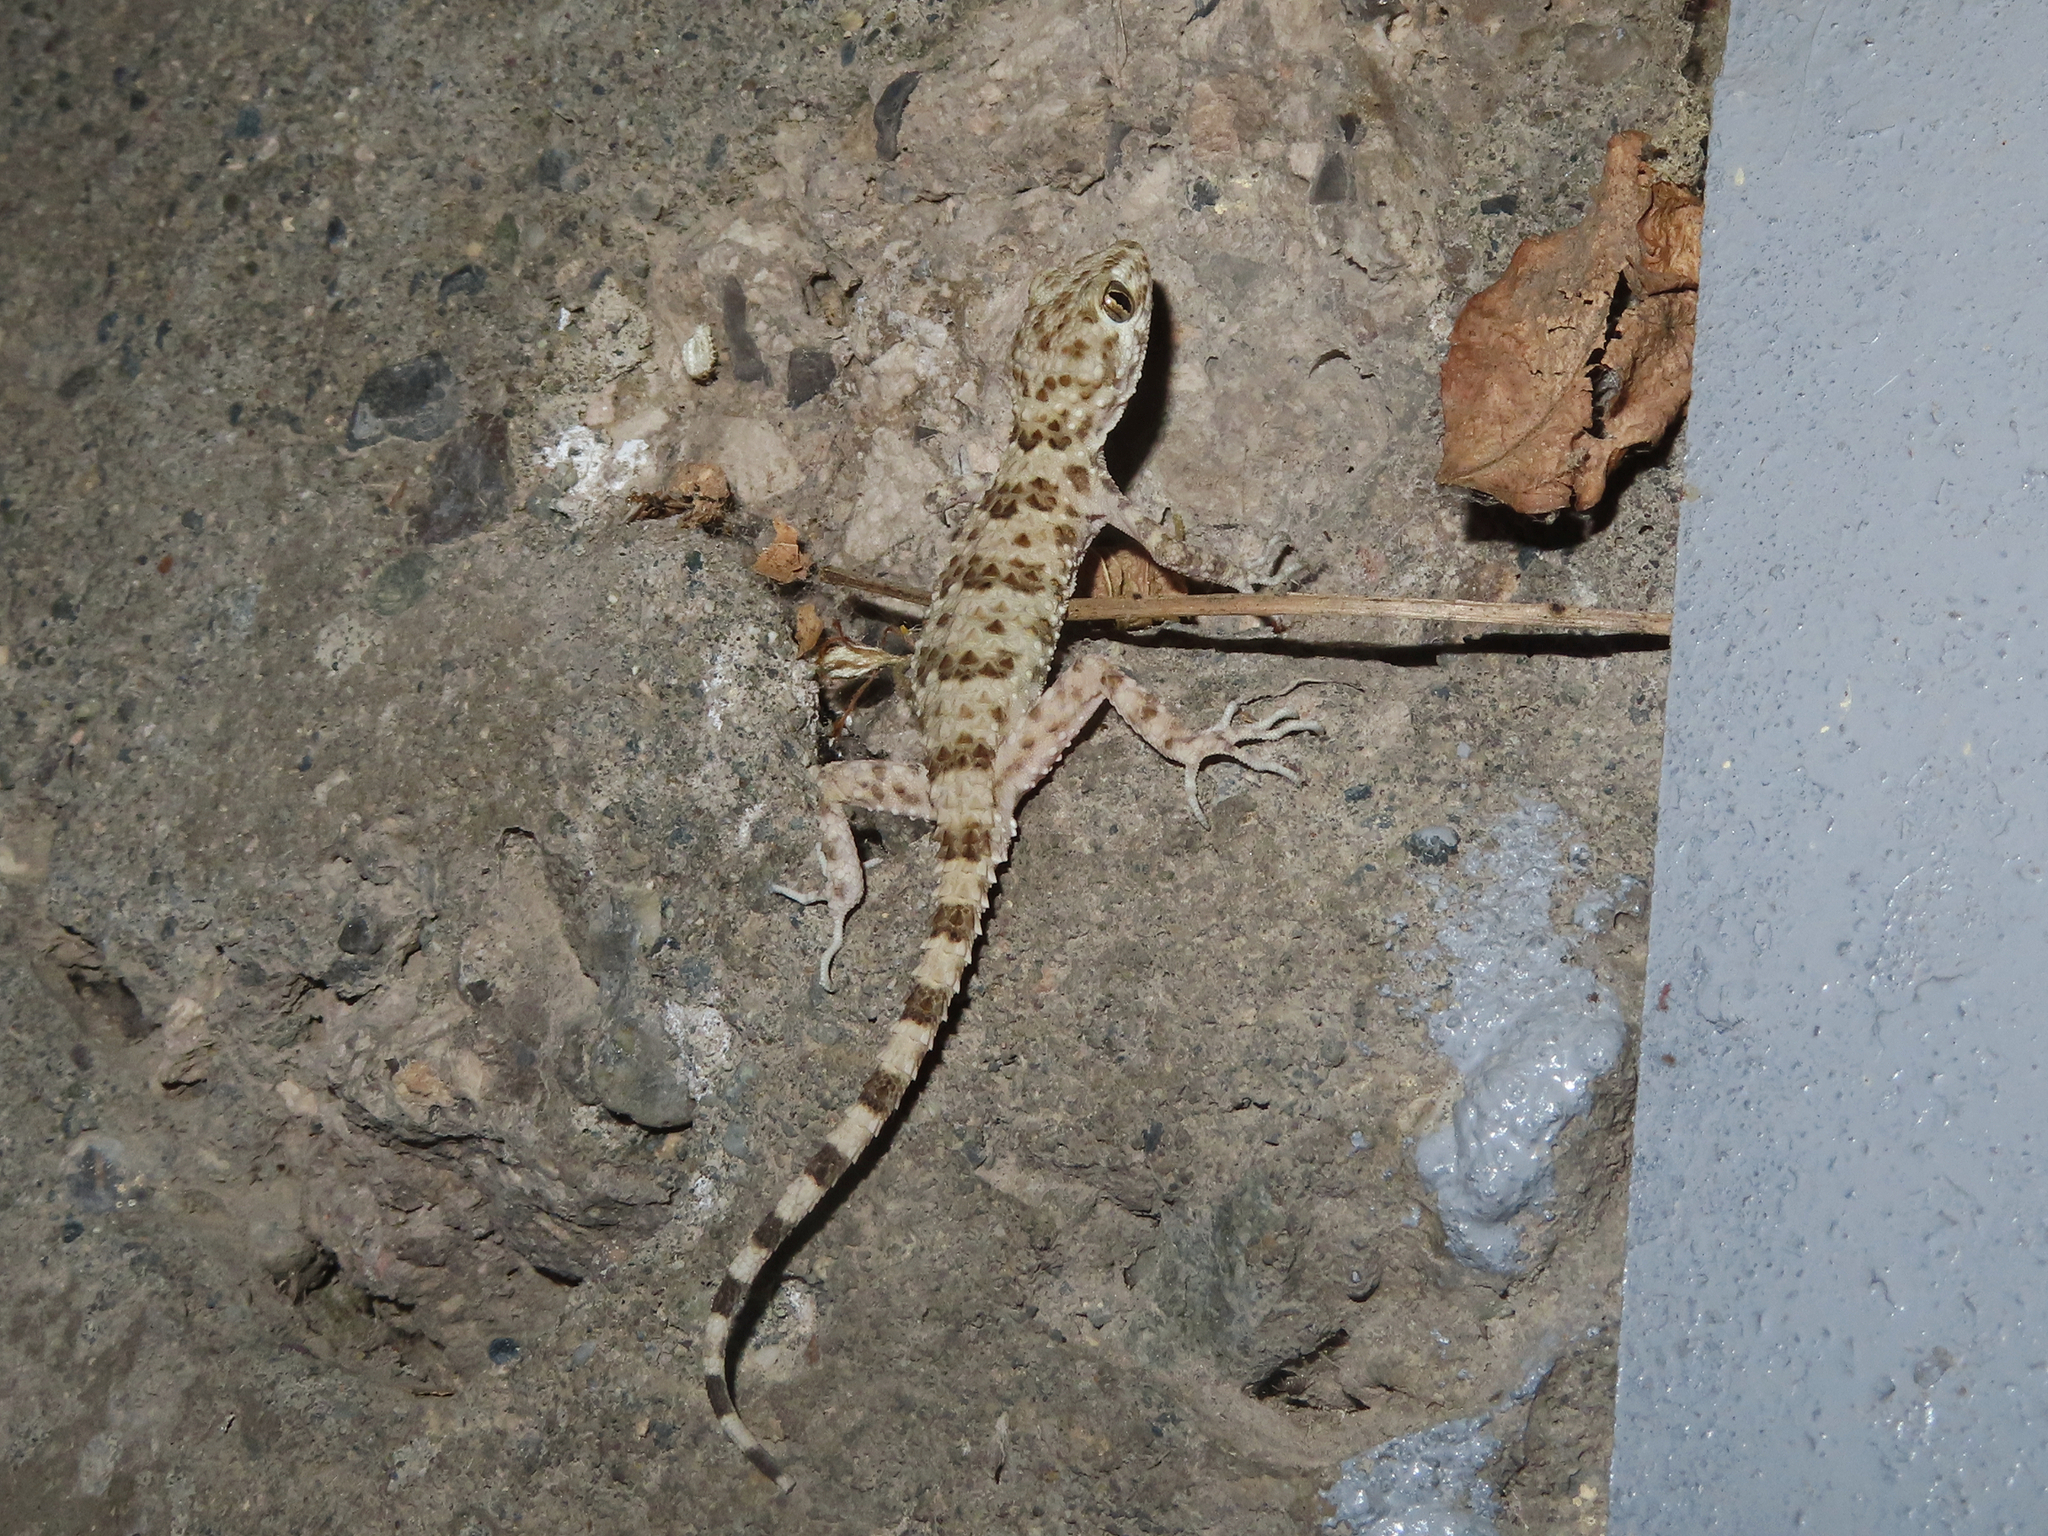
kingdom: Animalia
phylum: Chordata
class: Squamata
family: Gekkonidae
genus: Tenuidactylus
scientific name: Tenuidactylus caspius
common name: Caspian bent-toed gecko
